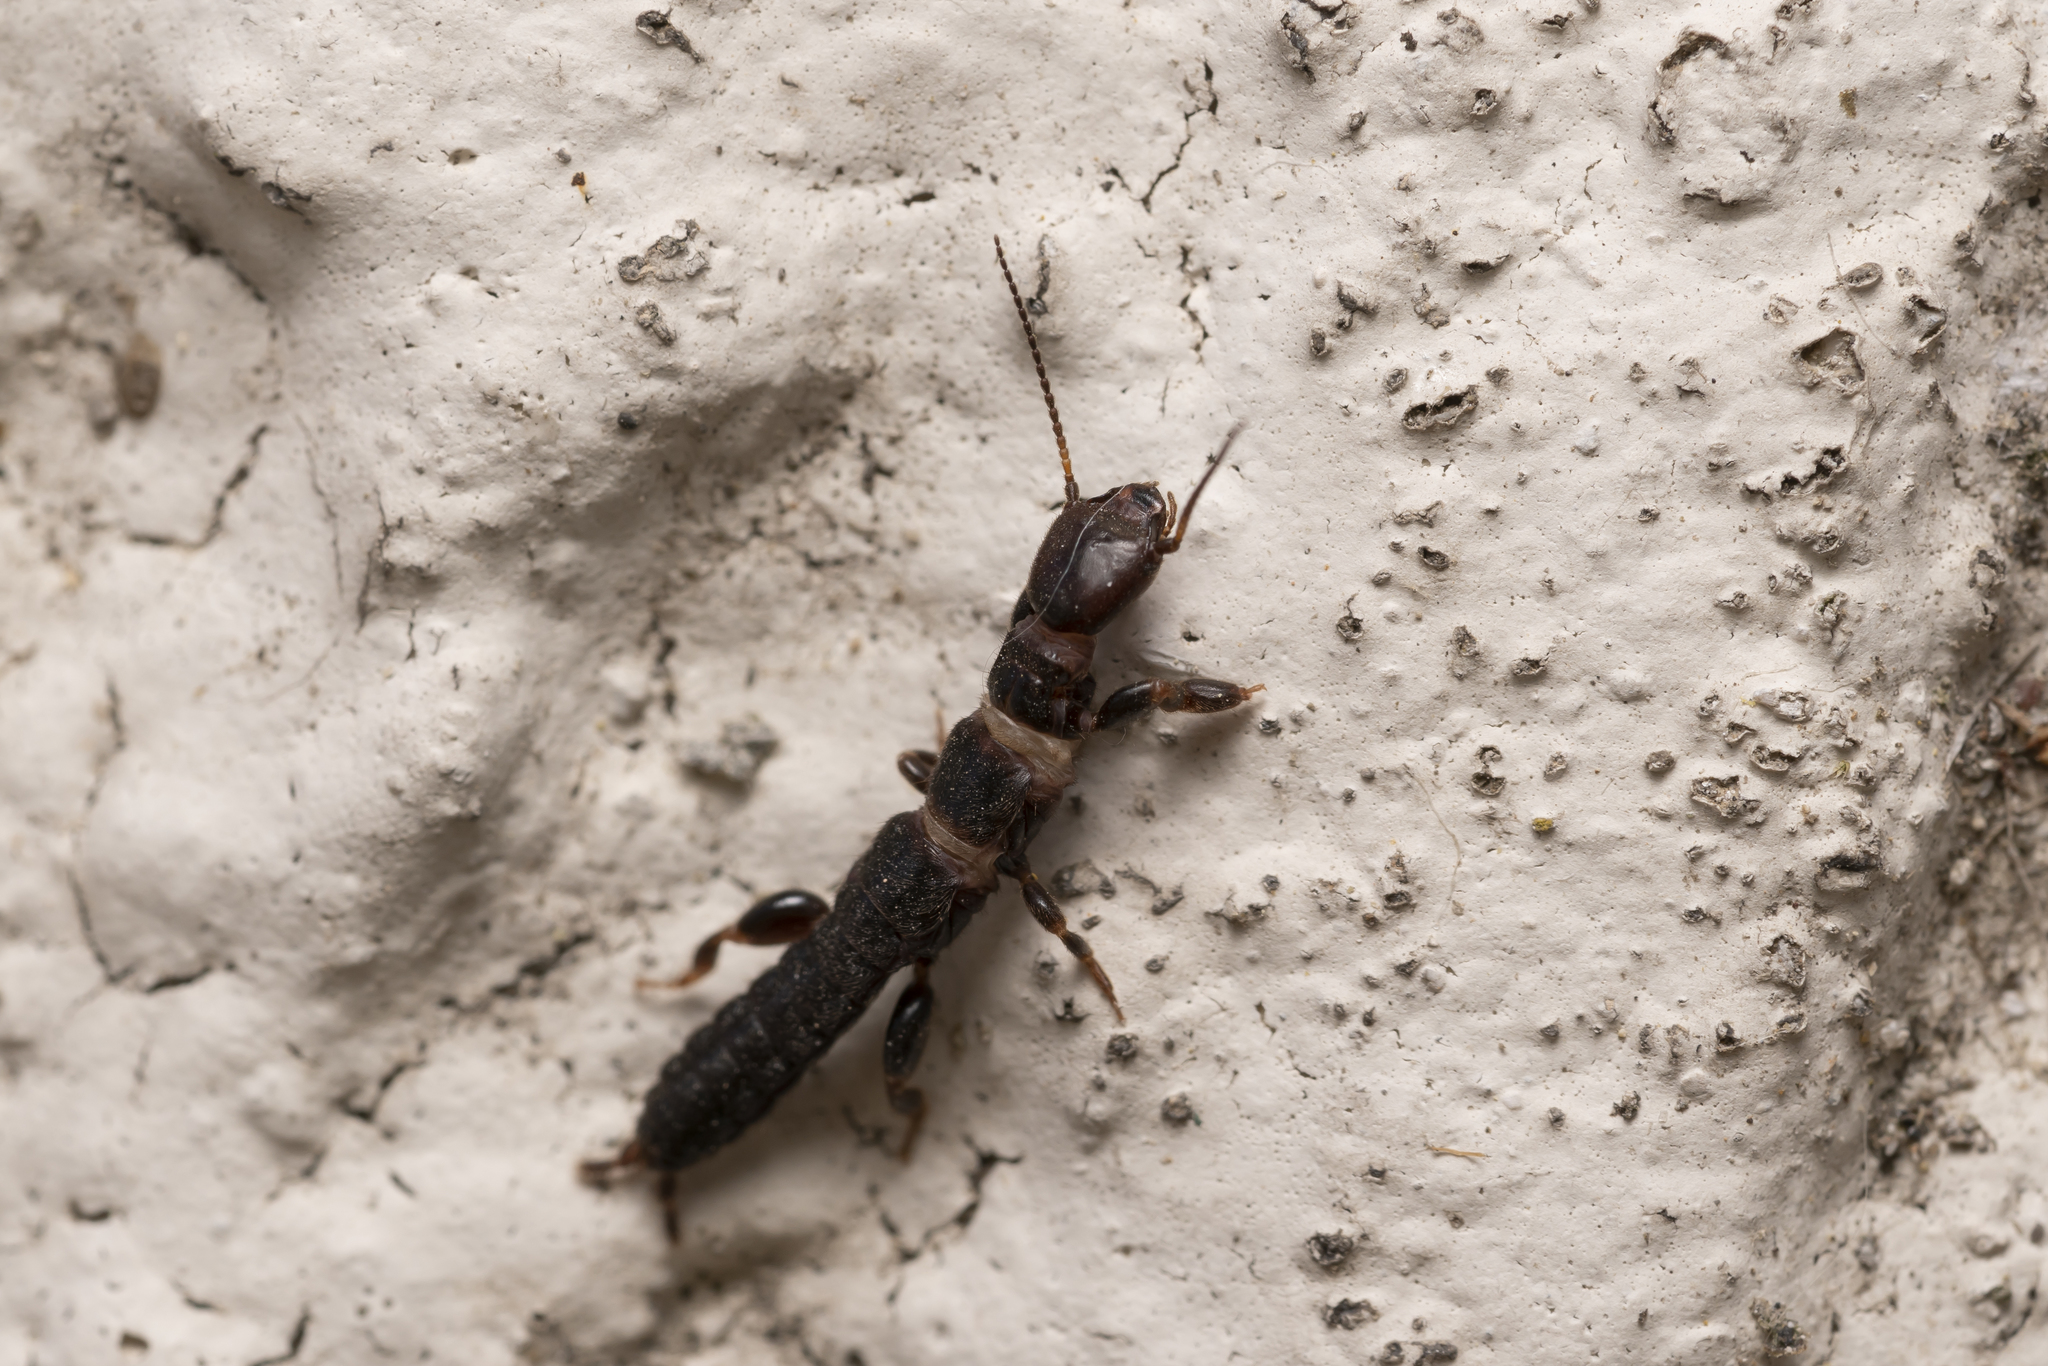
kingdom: Animalia
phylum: Arthropoda
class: Insecta
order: Embioptera
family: Oligotomidae
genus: Haploembia
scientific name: Haploembia palaui
